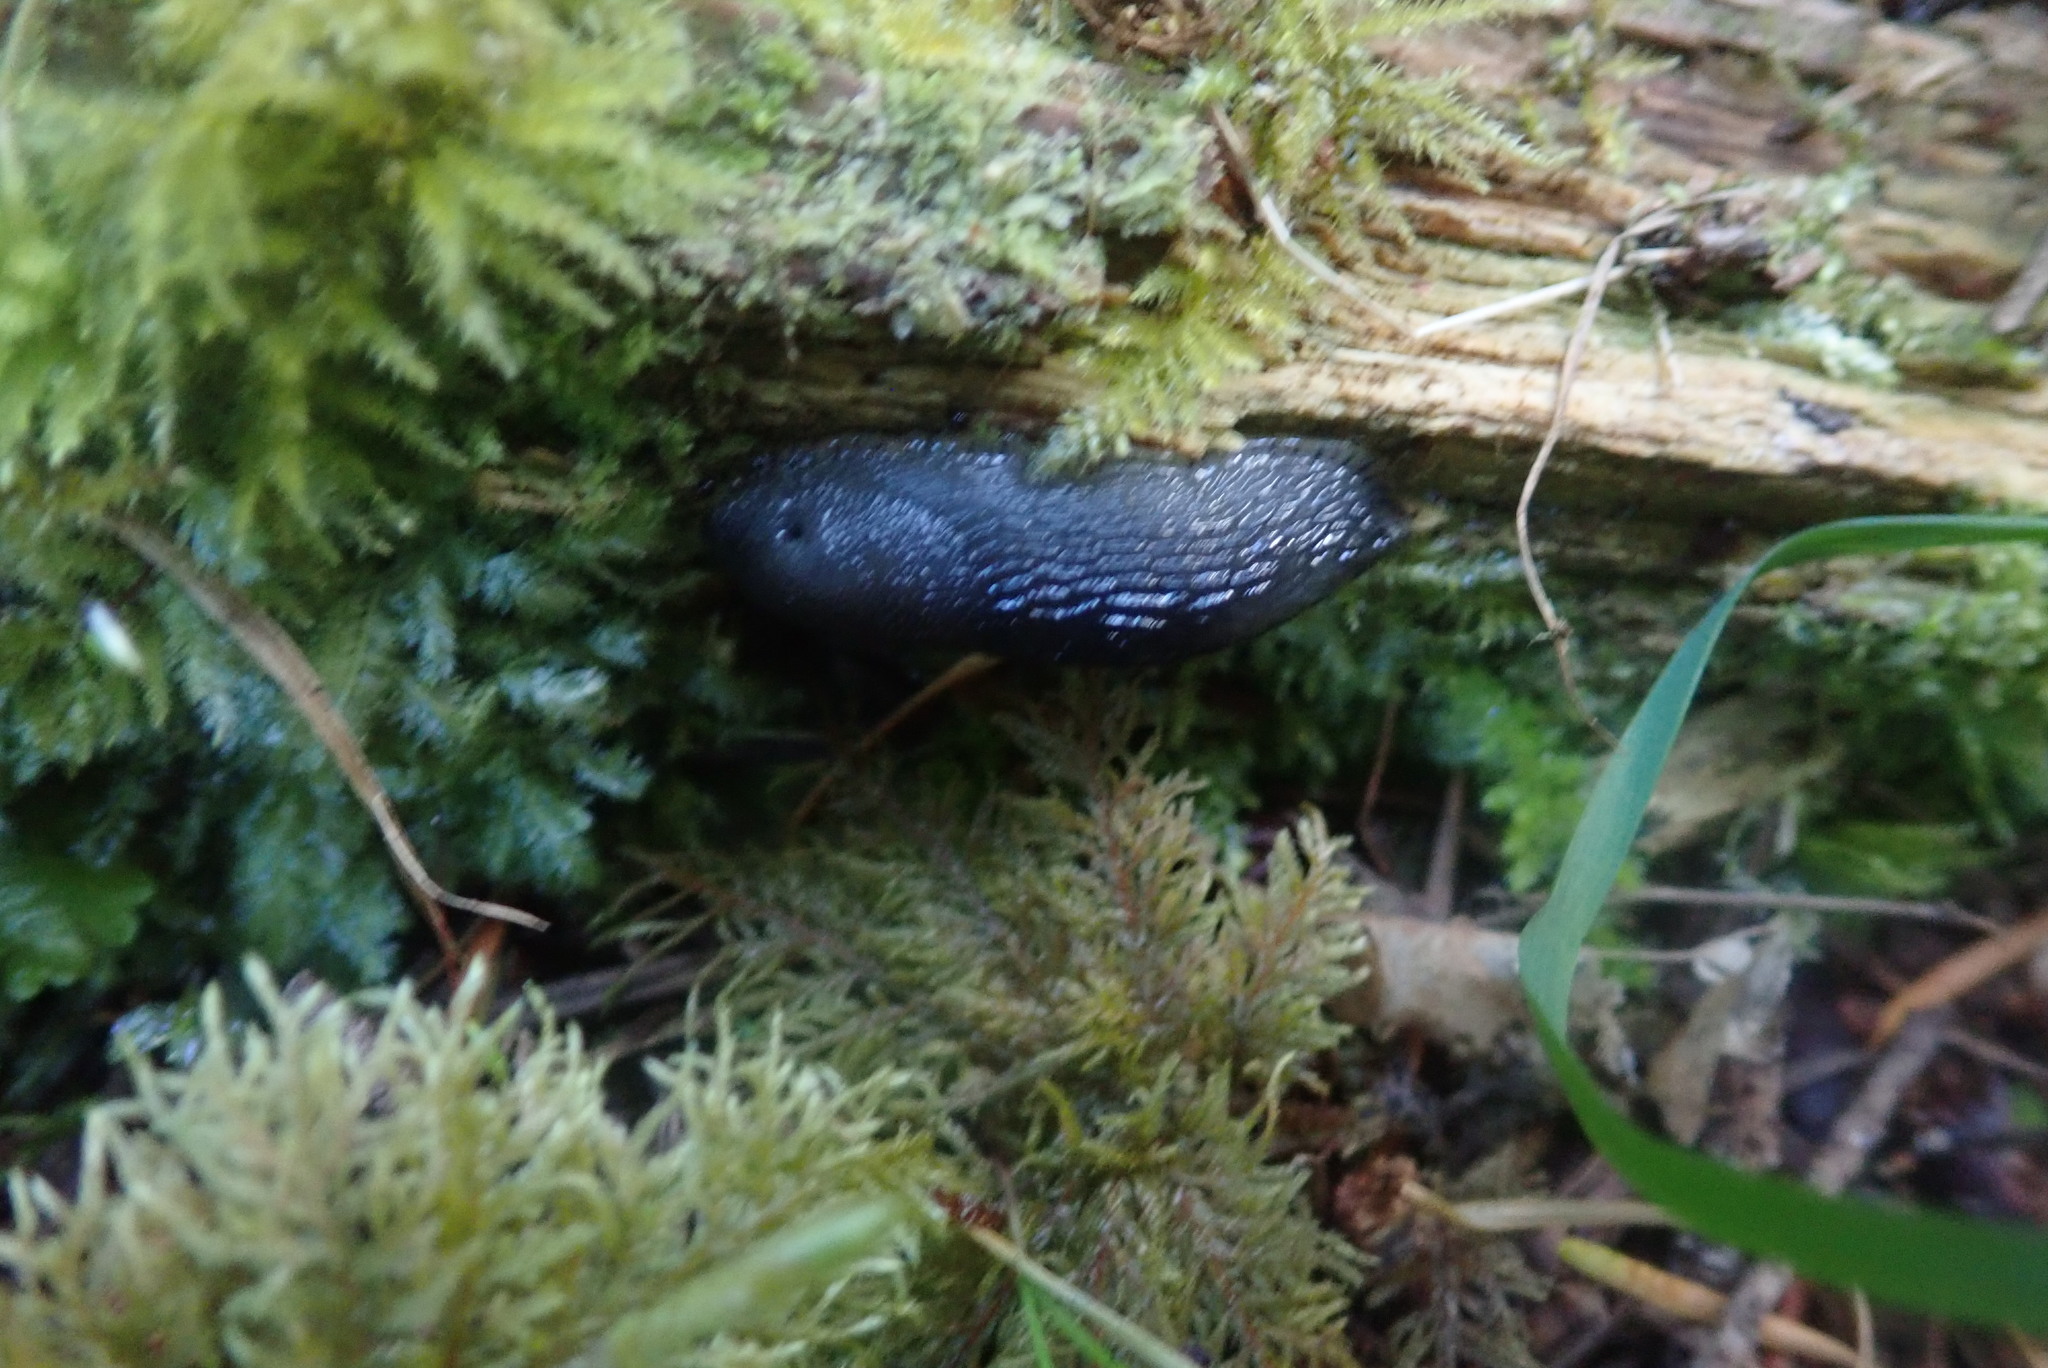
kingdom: Animalia
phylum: Mollusca
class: Gastropoda
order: Stylommatophora
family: Arionidae
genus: Arion
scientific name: Arion
